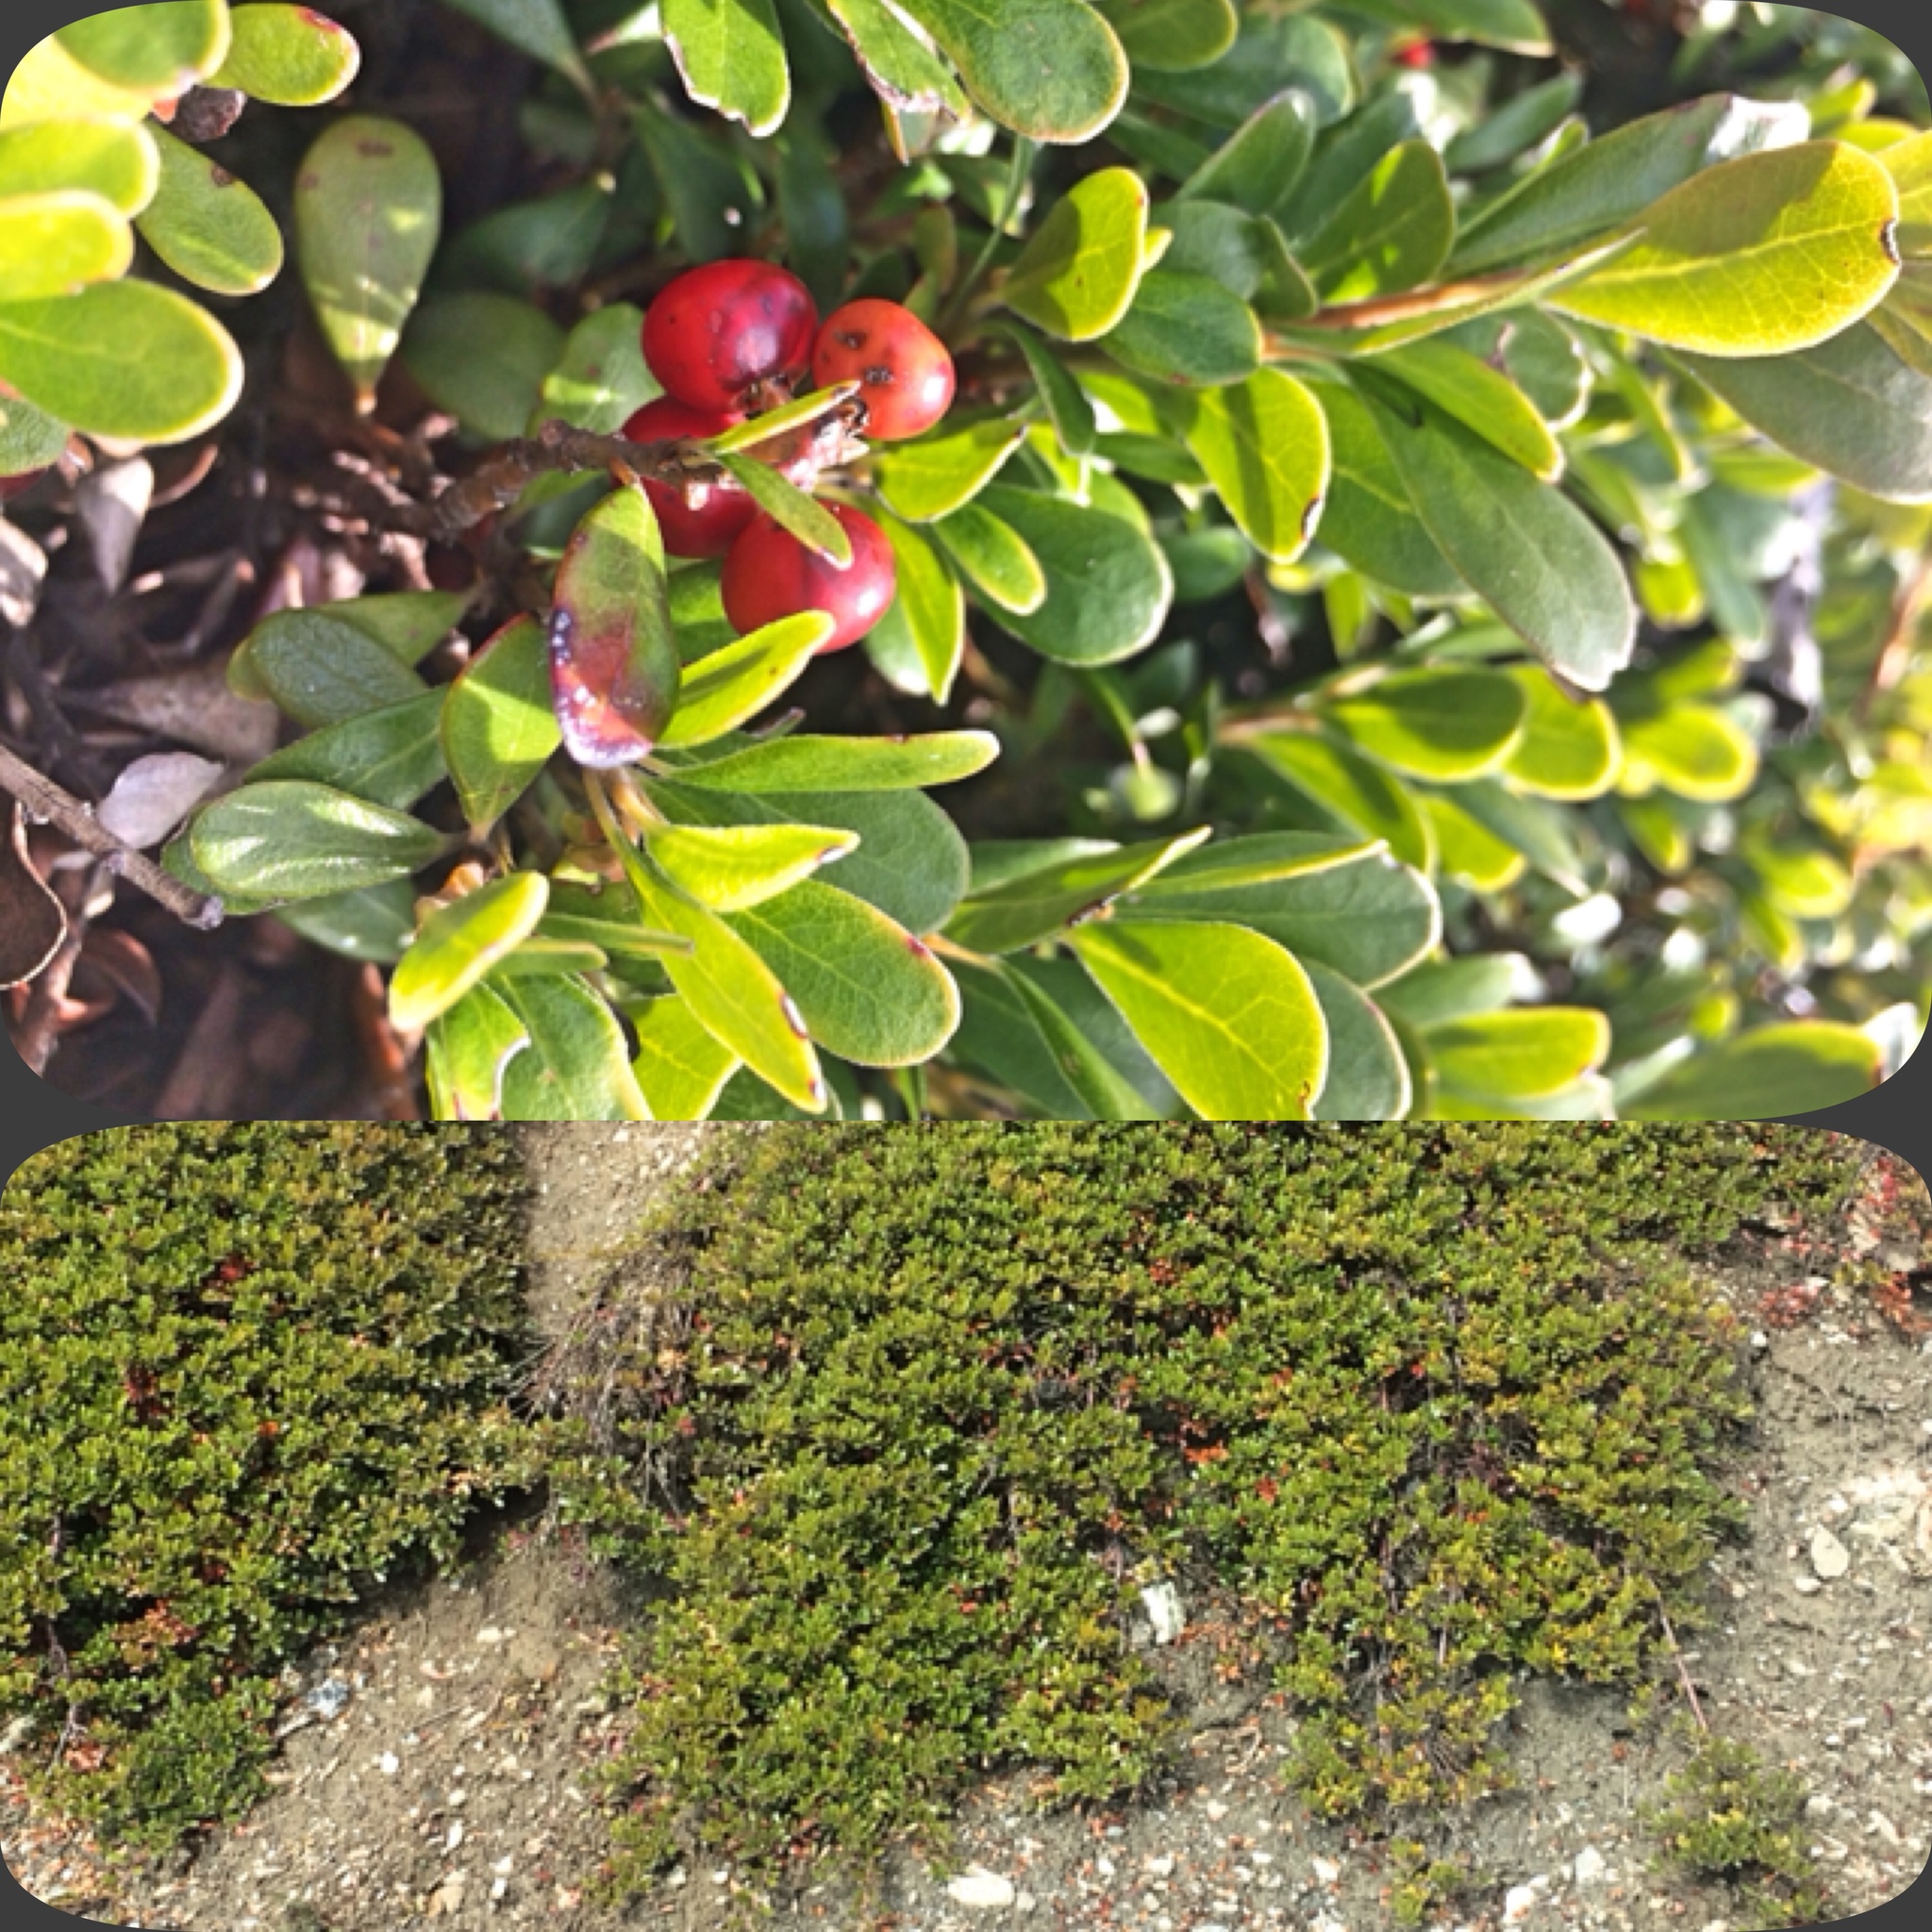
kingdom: Plantae
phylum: Tracheophyta
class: Magnoliopsida
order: Ericales
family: Ericaceae
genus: Arctostaphylos
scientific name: Arctostaphylos uva-ursi
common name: Bearberry
